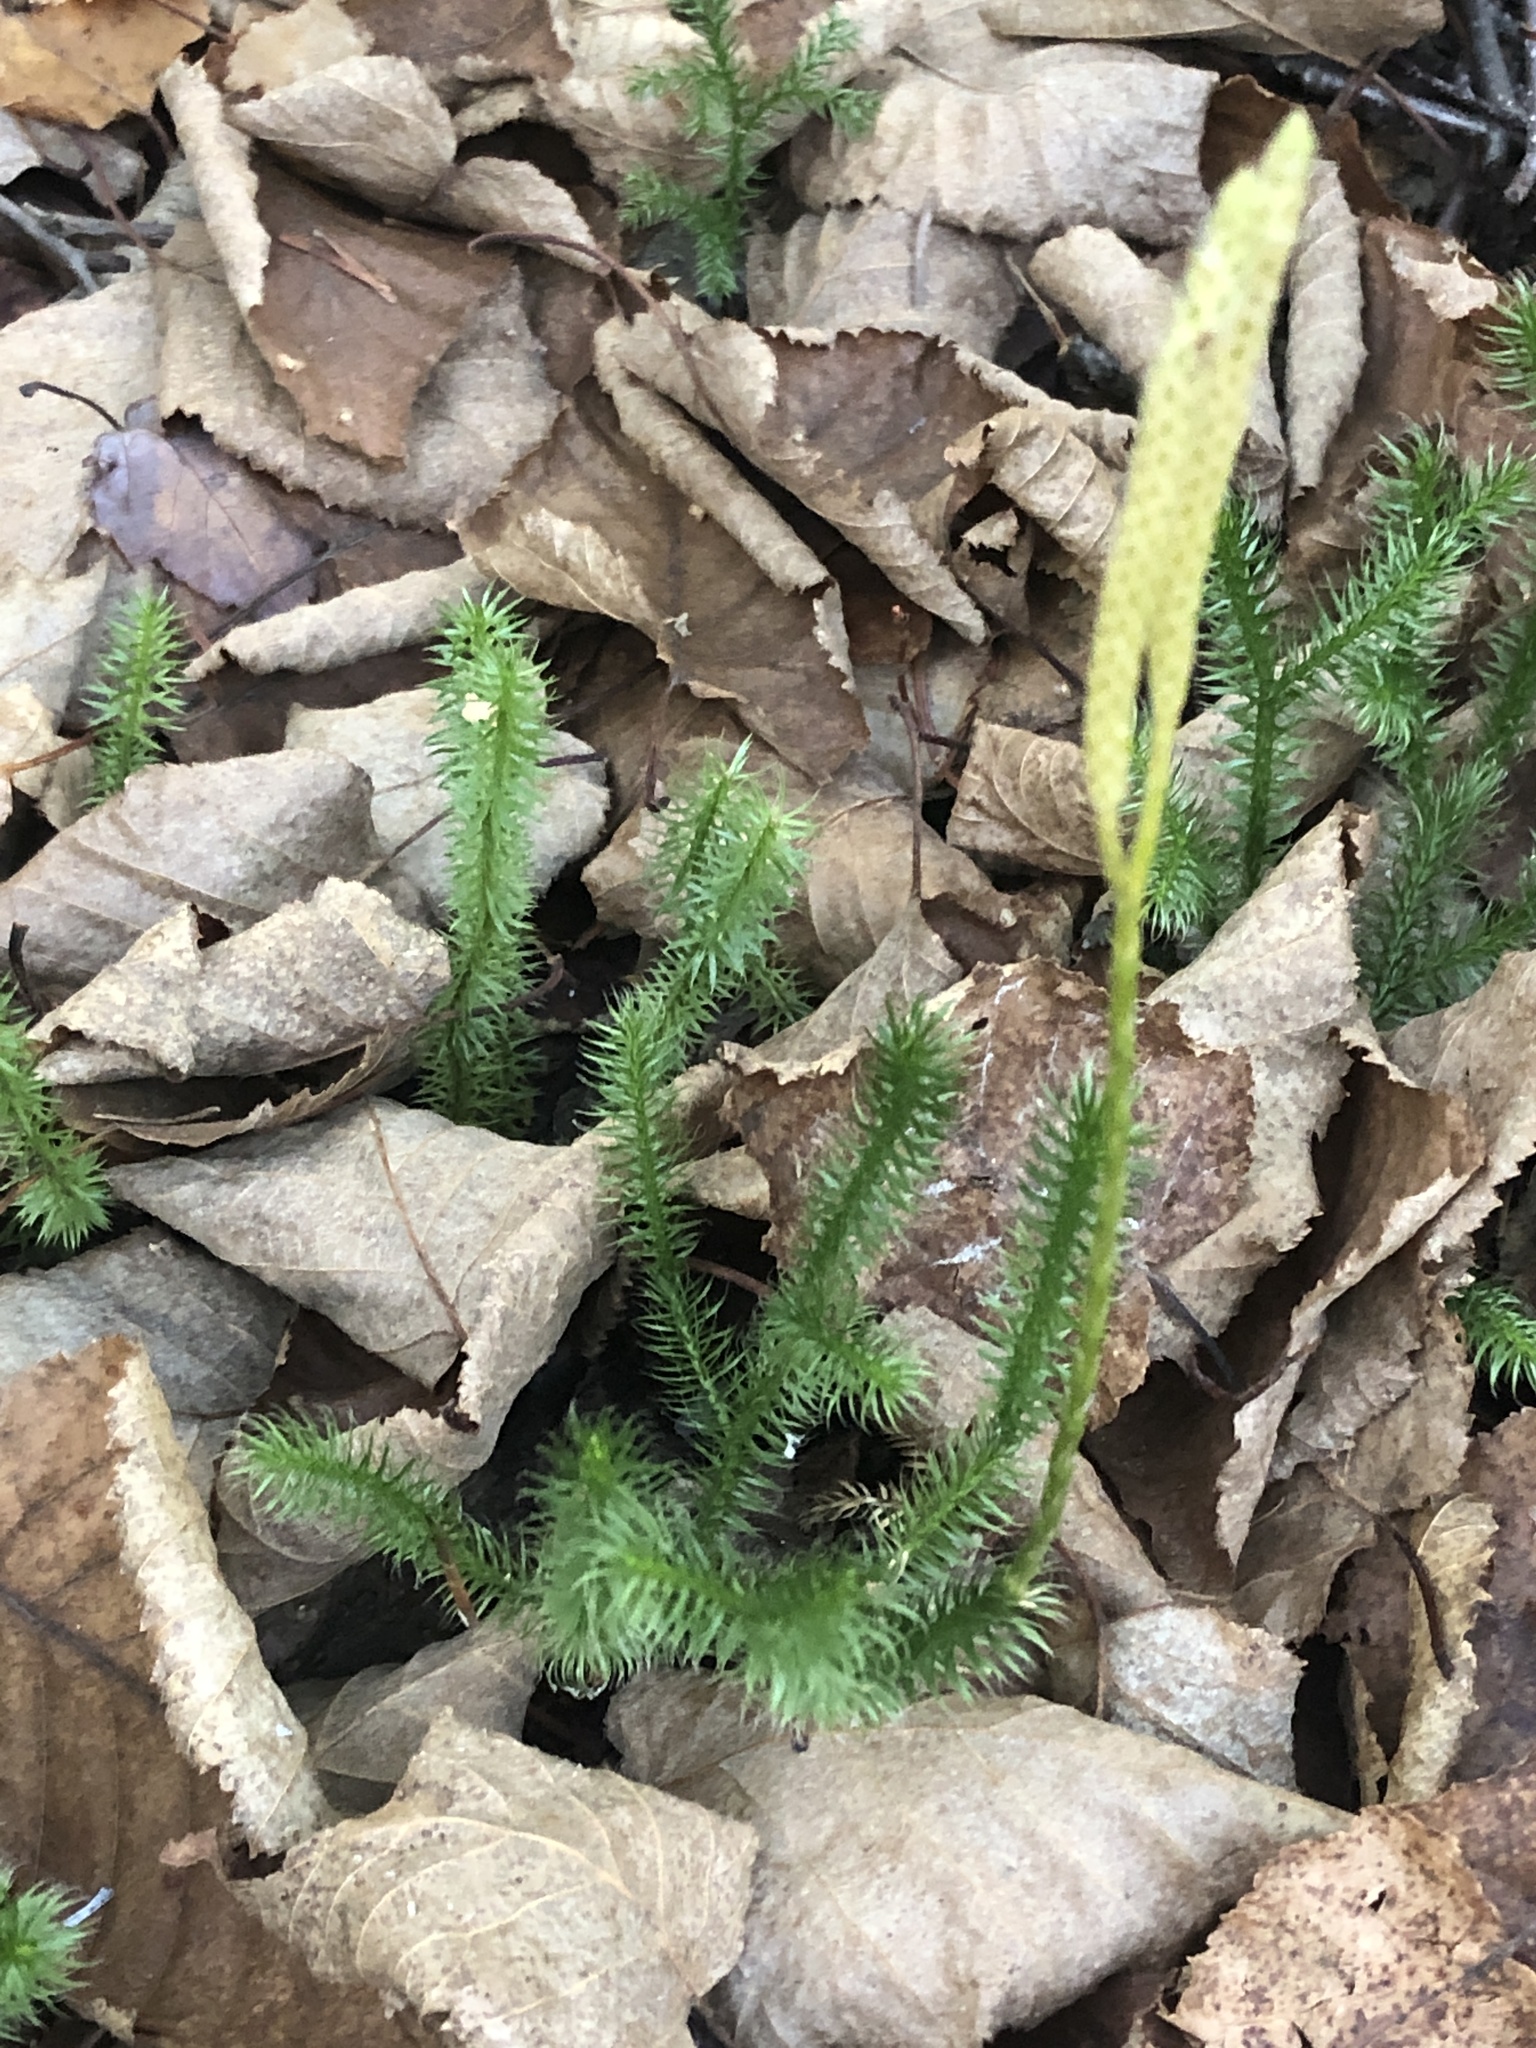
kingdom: Plantae
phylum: Tracheophyta
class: Lycopodiopsida
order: Lycopodiales
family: Lycopodiaceae
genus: Lycopodium
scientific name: Lycopodium clavatum
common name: Stag's-horn clubmoss
